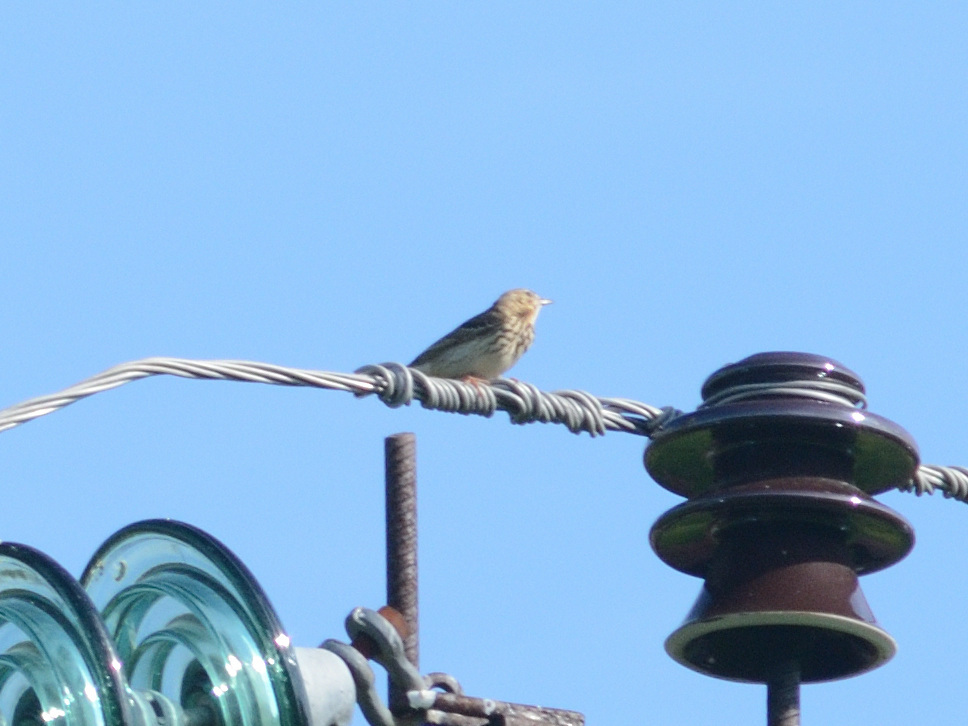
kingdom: Animalia
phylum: Chordata
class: Aves
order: Passeriformes
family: Motacillidae
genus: Anthus
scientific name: Anthus trivialis
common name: Tree pipit
